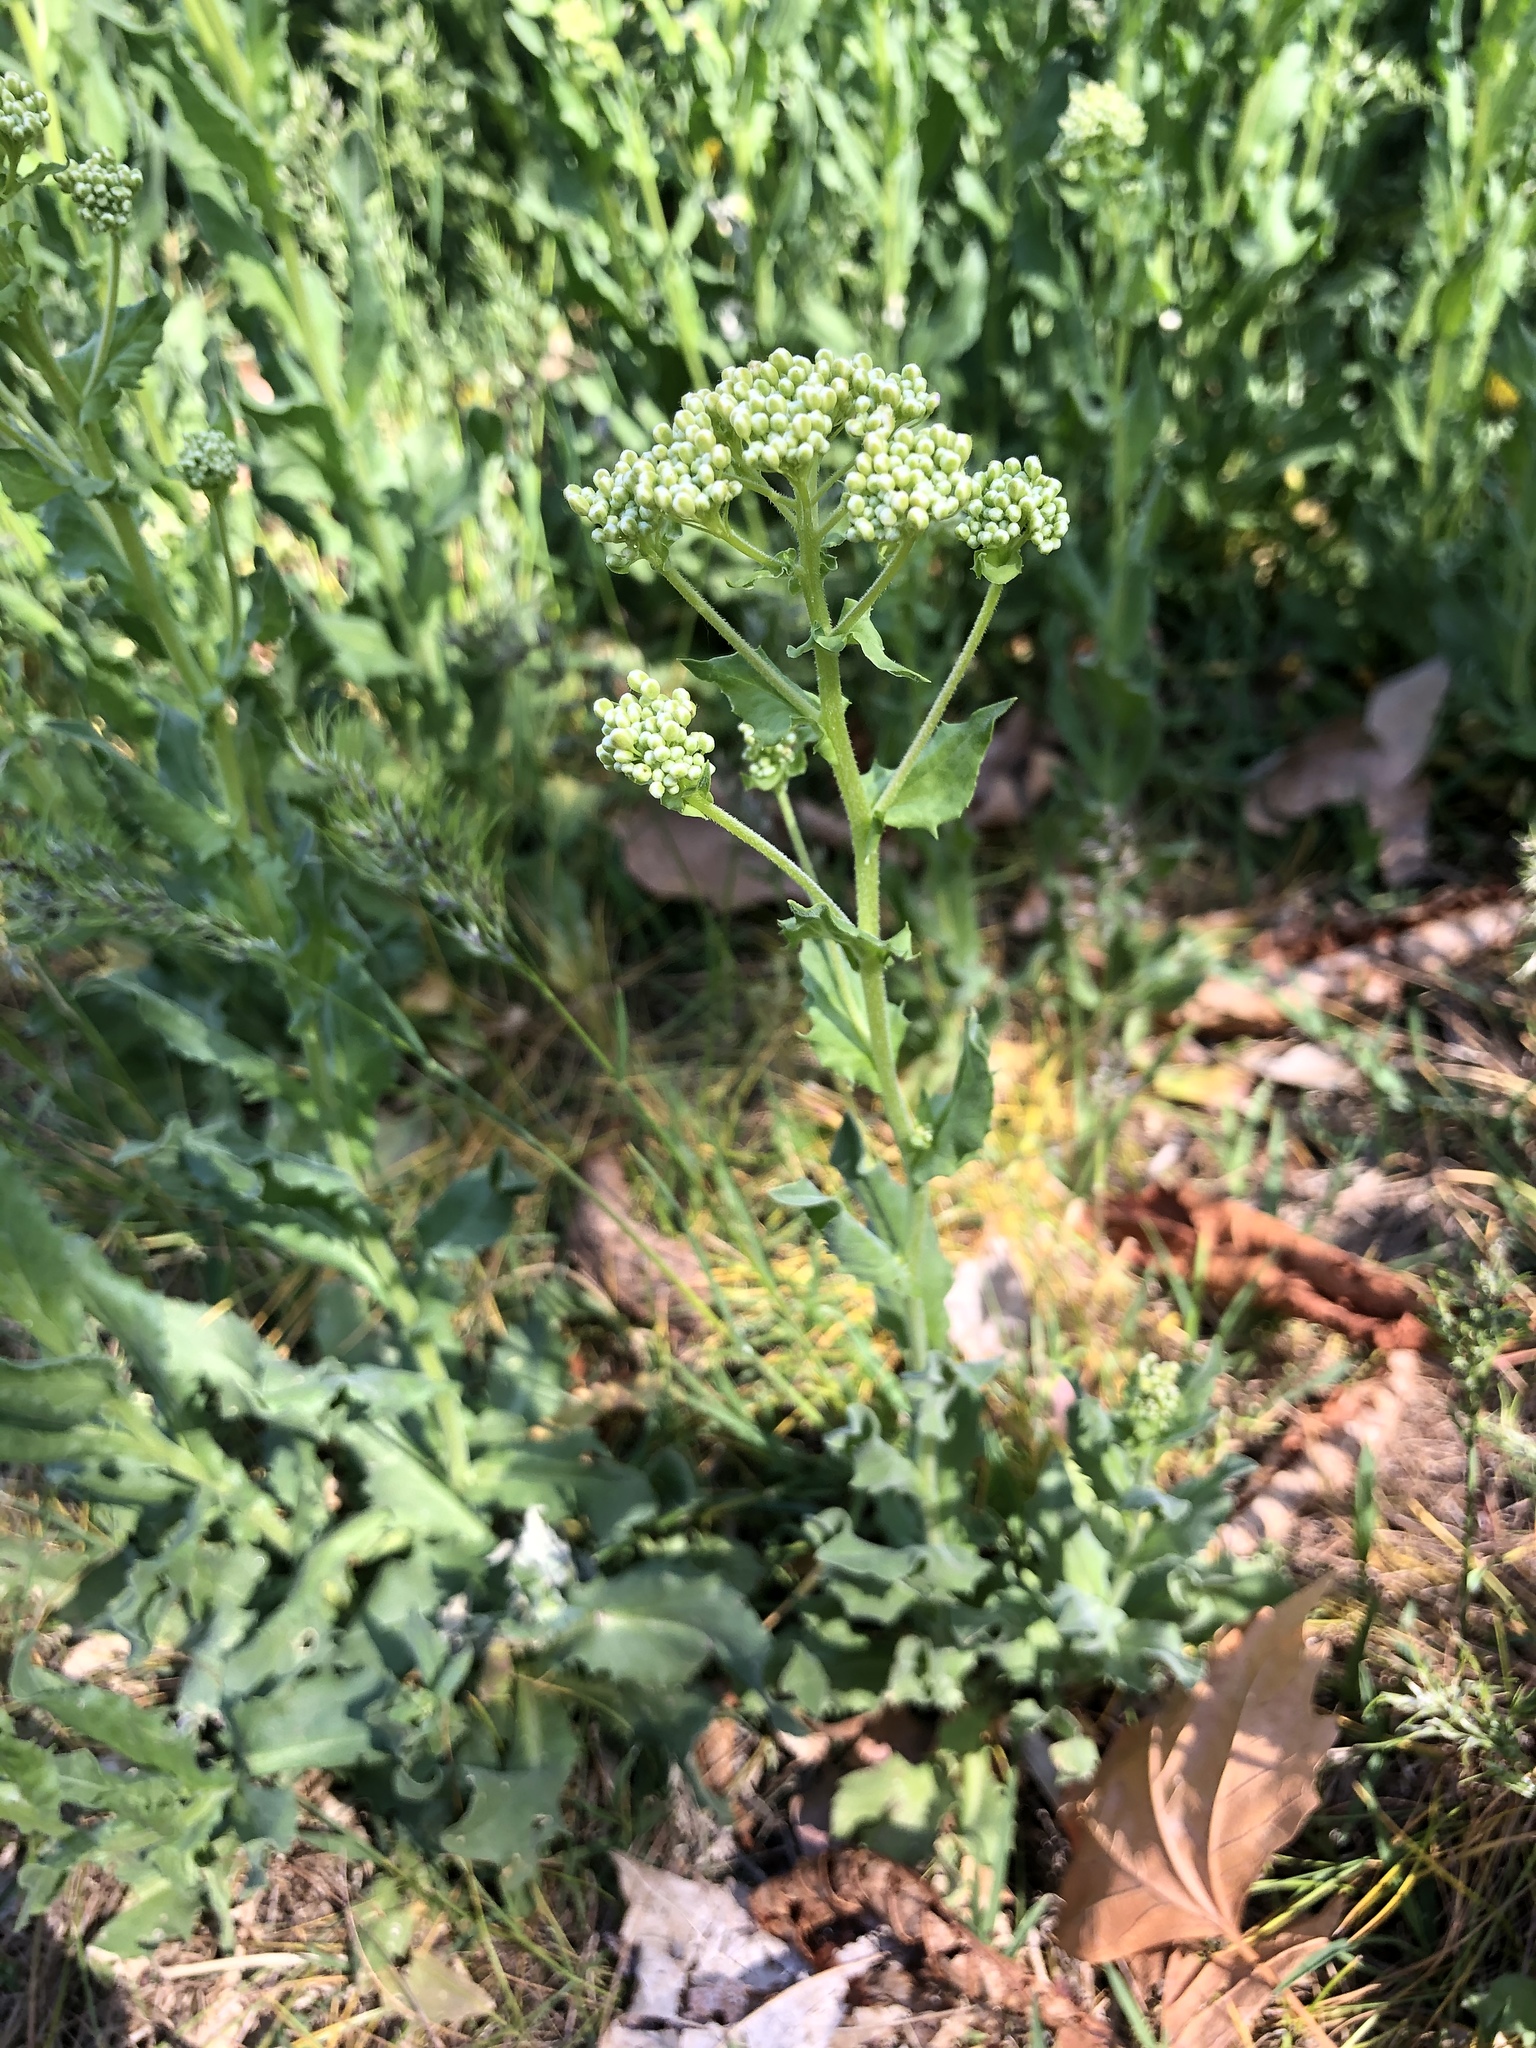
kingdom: Plantae
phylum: Tracheophyta
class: Magnoliopsida
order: Brassicales
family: Brassicaceae
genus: Lepidium
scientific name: Lepidium draba
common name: Hoary cress
